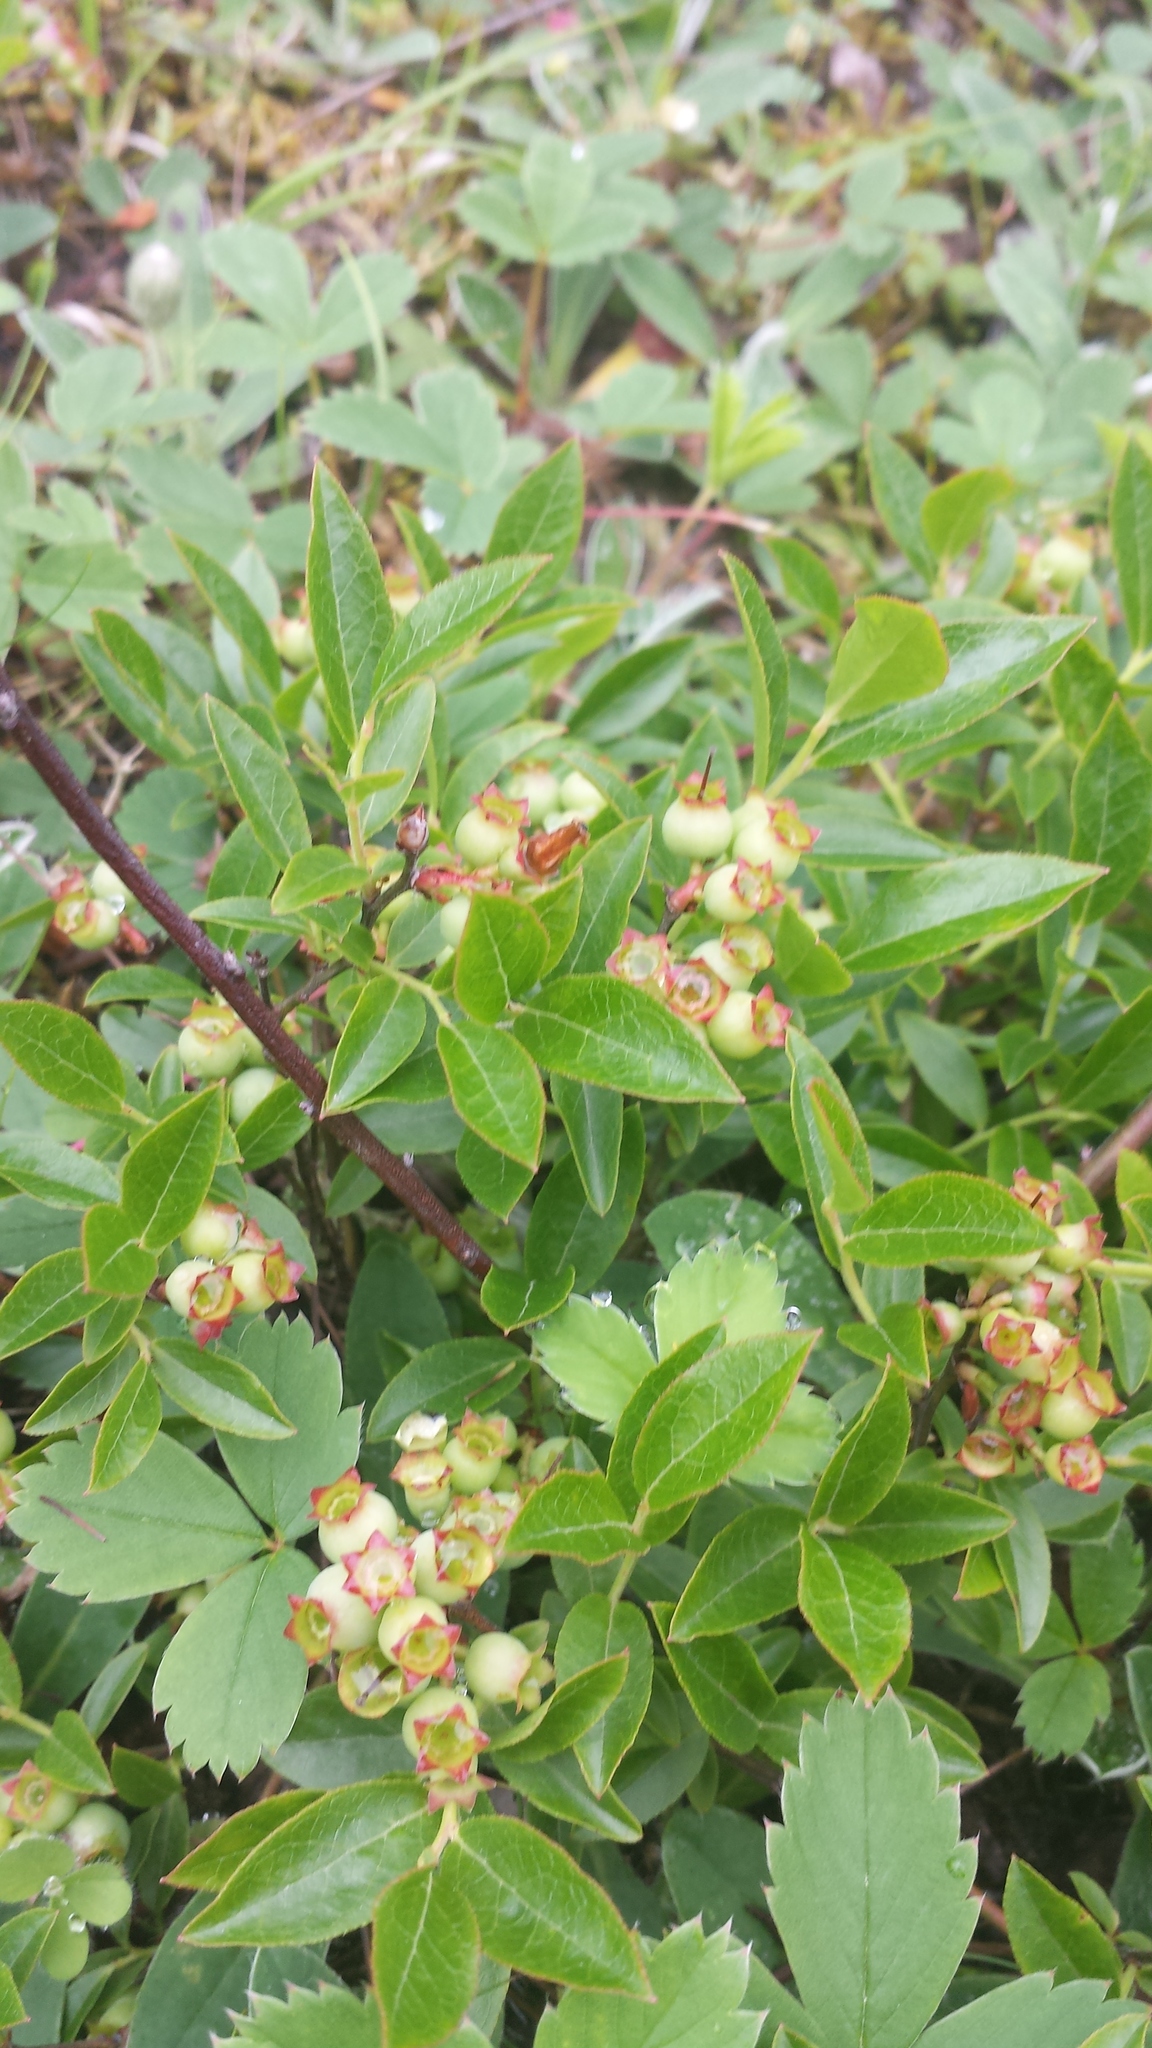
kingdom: Plantae
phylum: Tracheophyta
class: Magnoliopsida
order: Ericales
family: Ericaceae
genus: Vaccinium
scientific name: Vaccinium angustifolium
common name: Early lowbush blueberry
